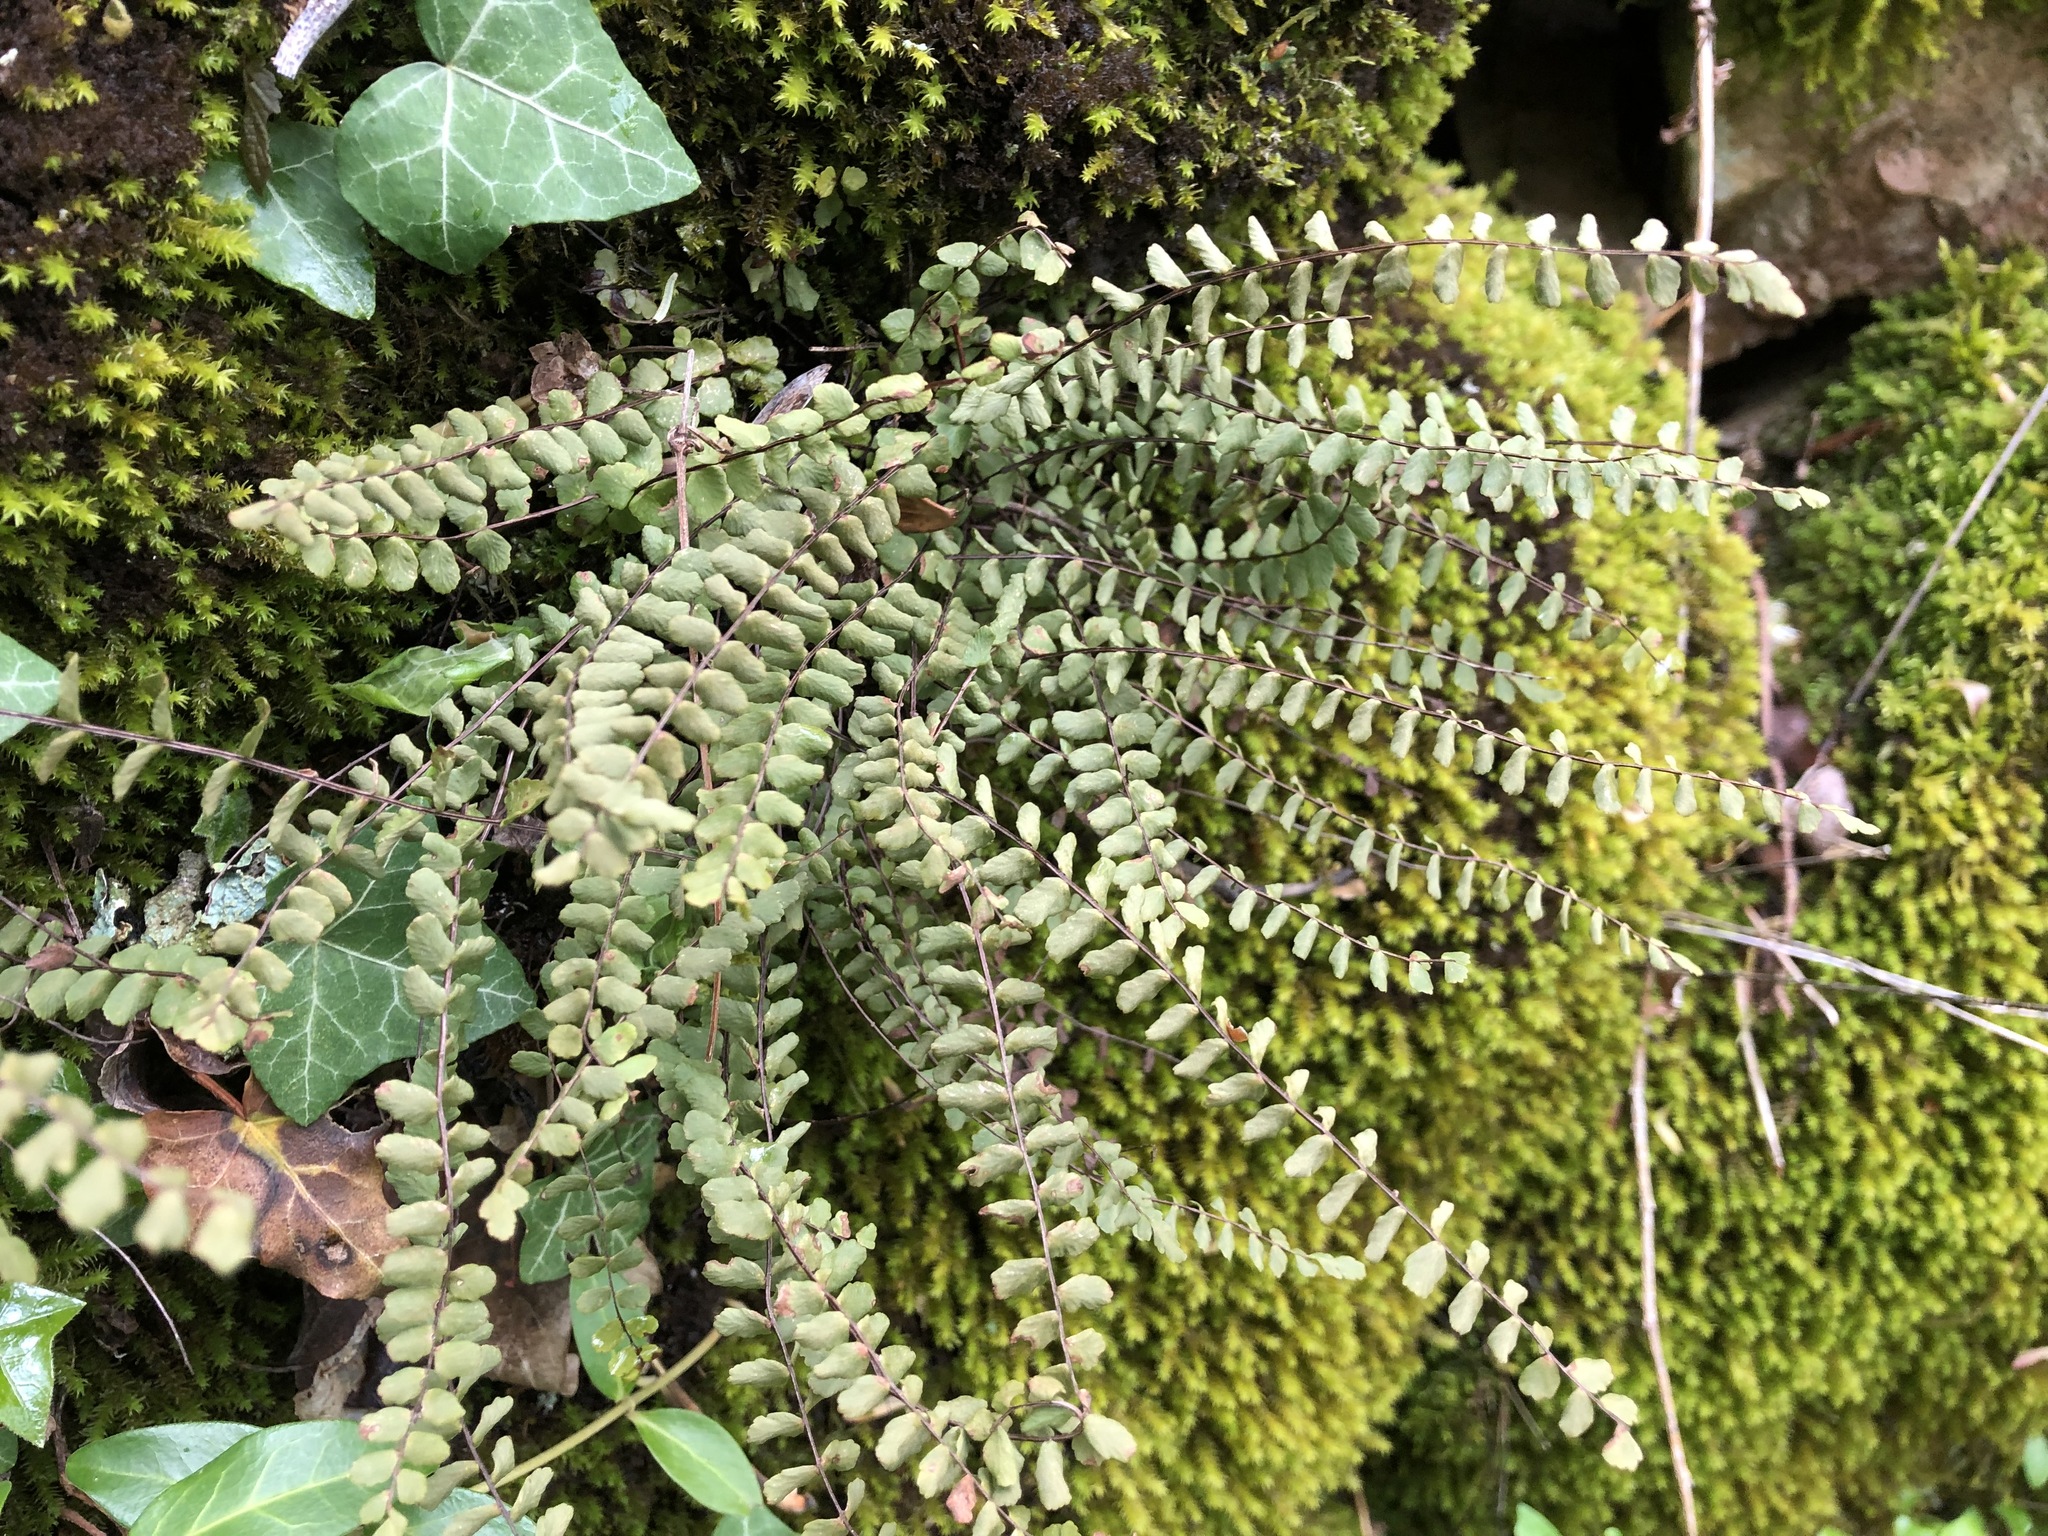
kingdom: Plantae
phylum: Tracheophyta
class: Polypodiopsida
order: Polypodiales
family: Aspleniaceae
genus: Asplenium
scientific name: Asplenium trichomanes
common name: Maidenhair spleenwort
